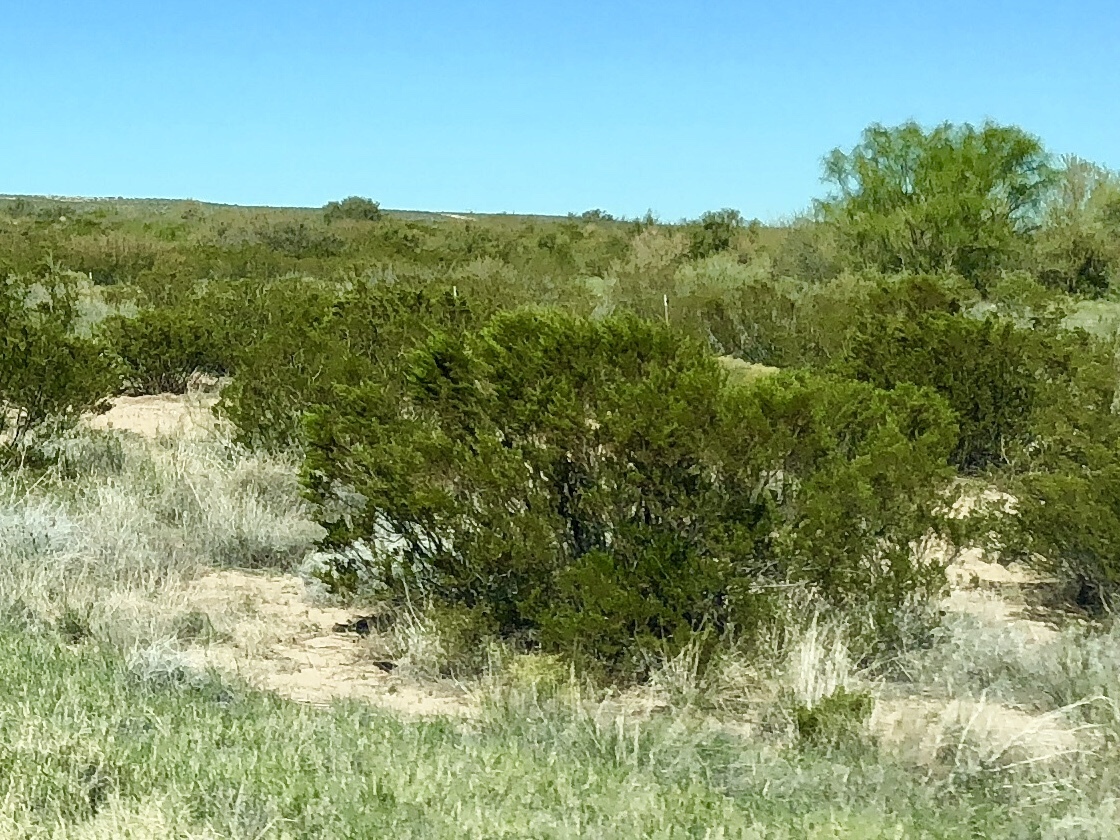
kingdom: Plantae
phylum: Tracheophyta
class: Magnoliopsida
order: Zygophyllales
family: Zygophyllaceae
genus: Larrea
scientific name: Larrea tridentata
